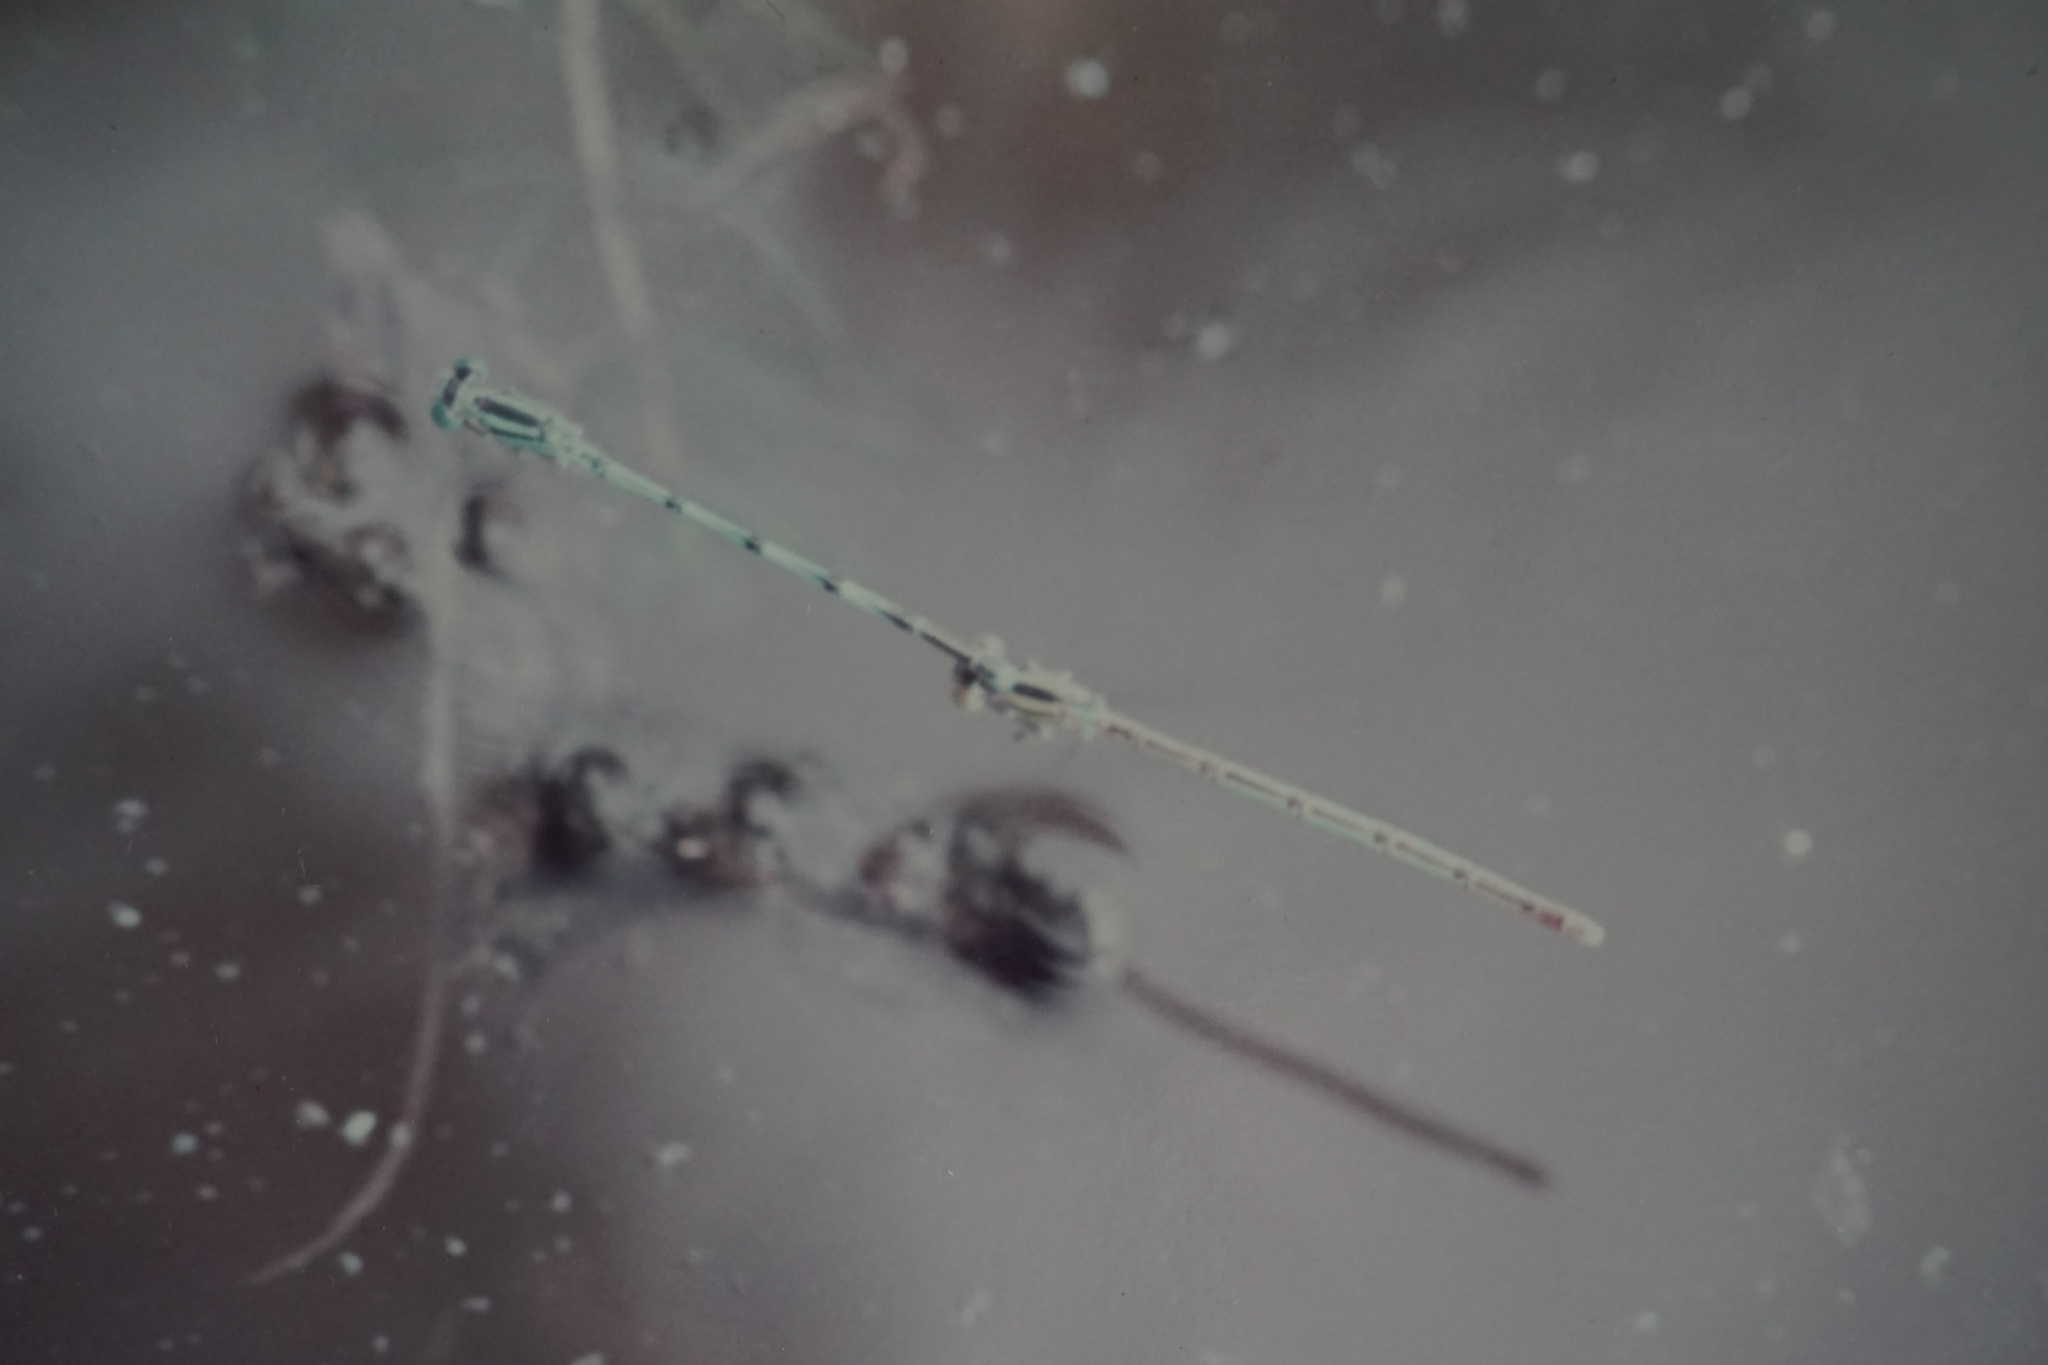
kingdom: Animalia
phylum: Arthropoda
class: Insecta
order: Odonata
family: Coenagrionidae
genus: Erythromma
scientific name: Erythromma lindenii
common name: Blue-eye
